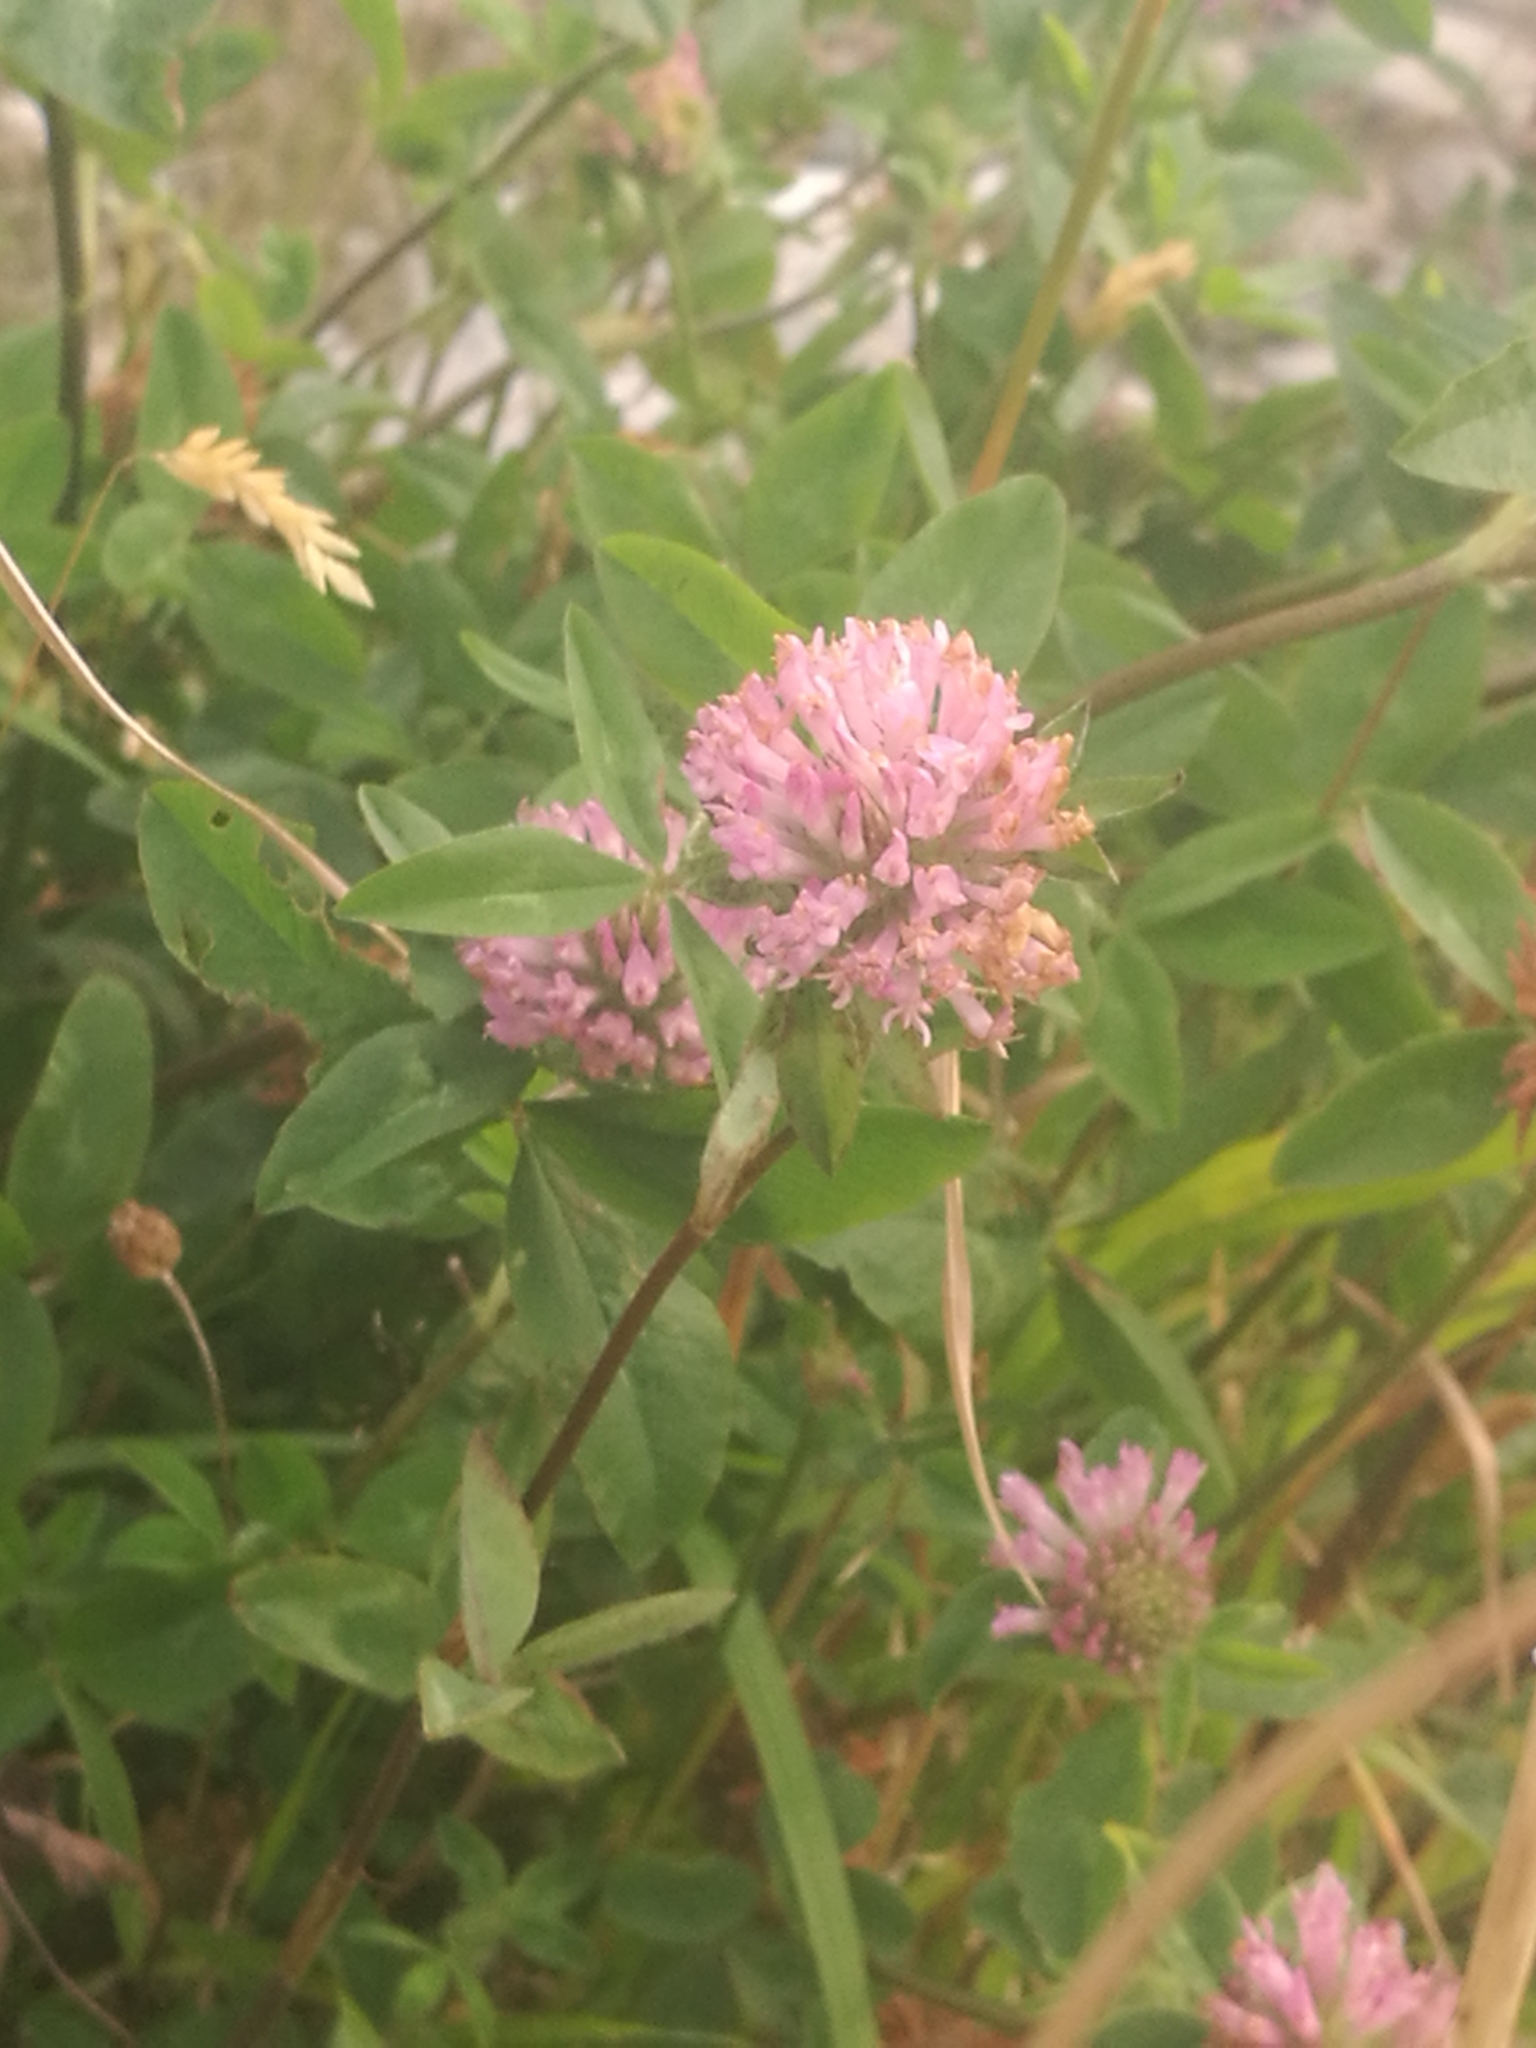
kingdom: Plantae
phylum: Tracheophyta
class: Magnoliopsida
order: Fabales
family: Fabaceae
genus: Trifolium
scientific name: Trifolium pratense
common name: Red clover
